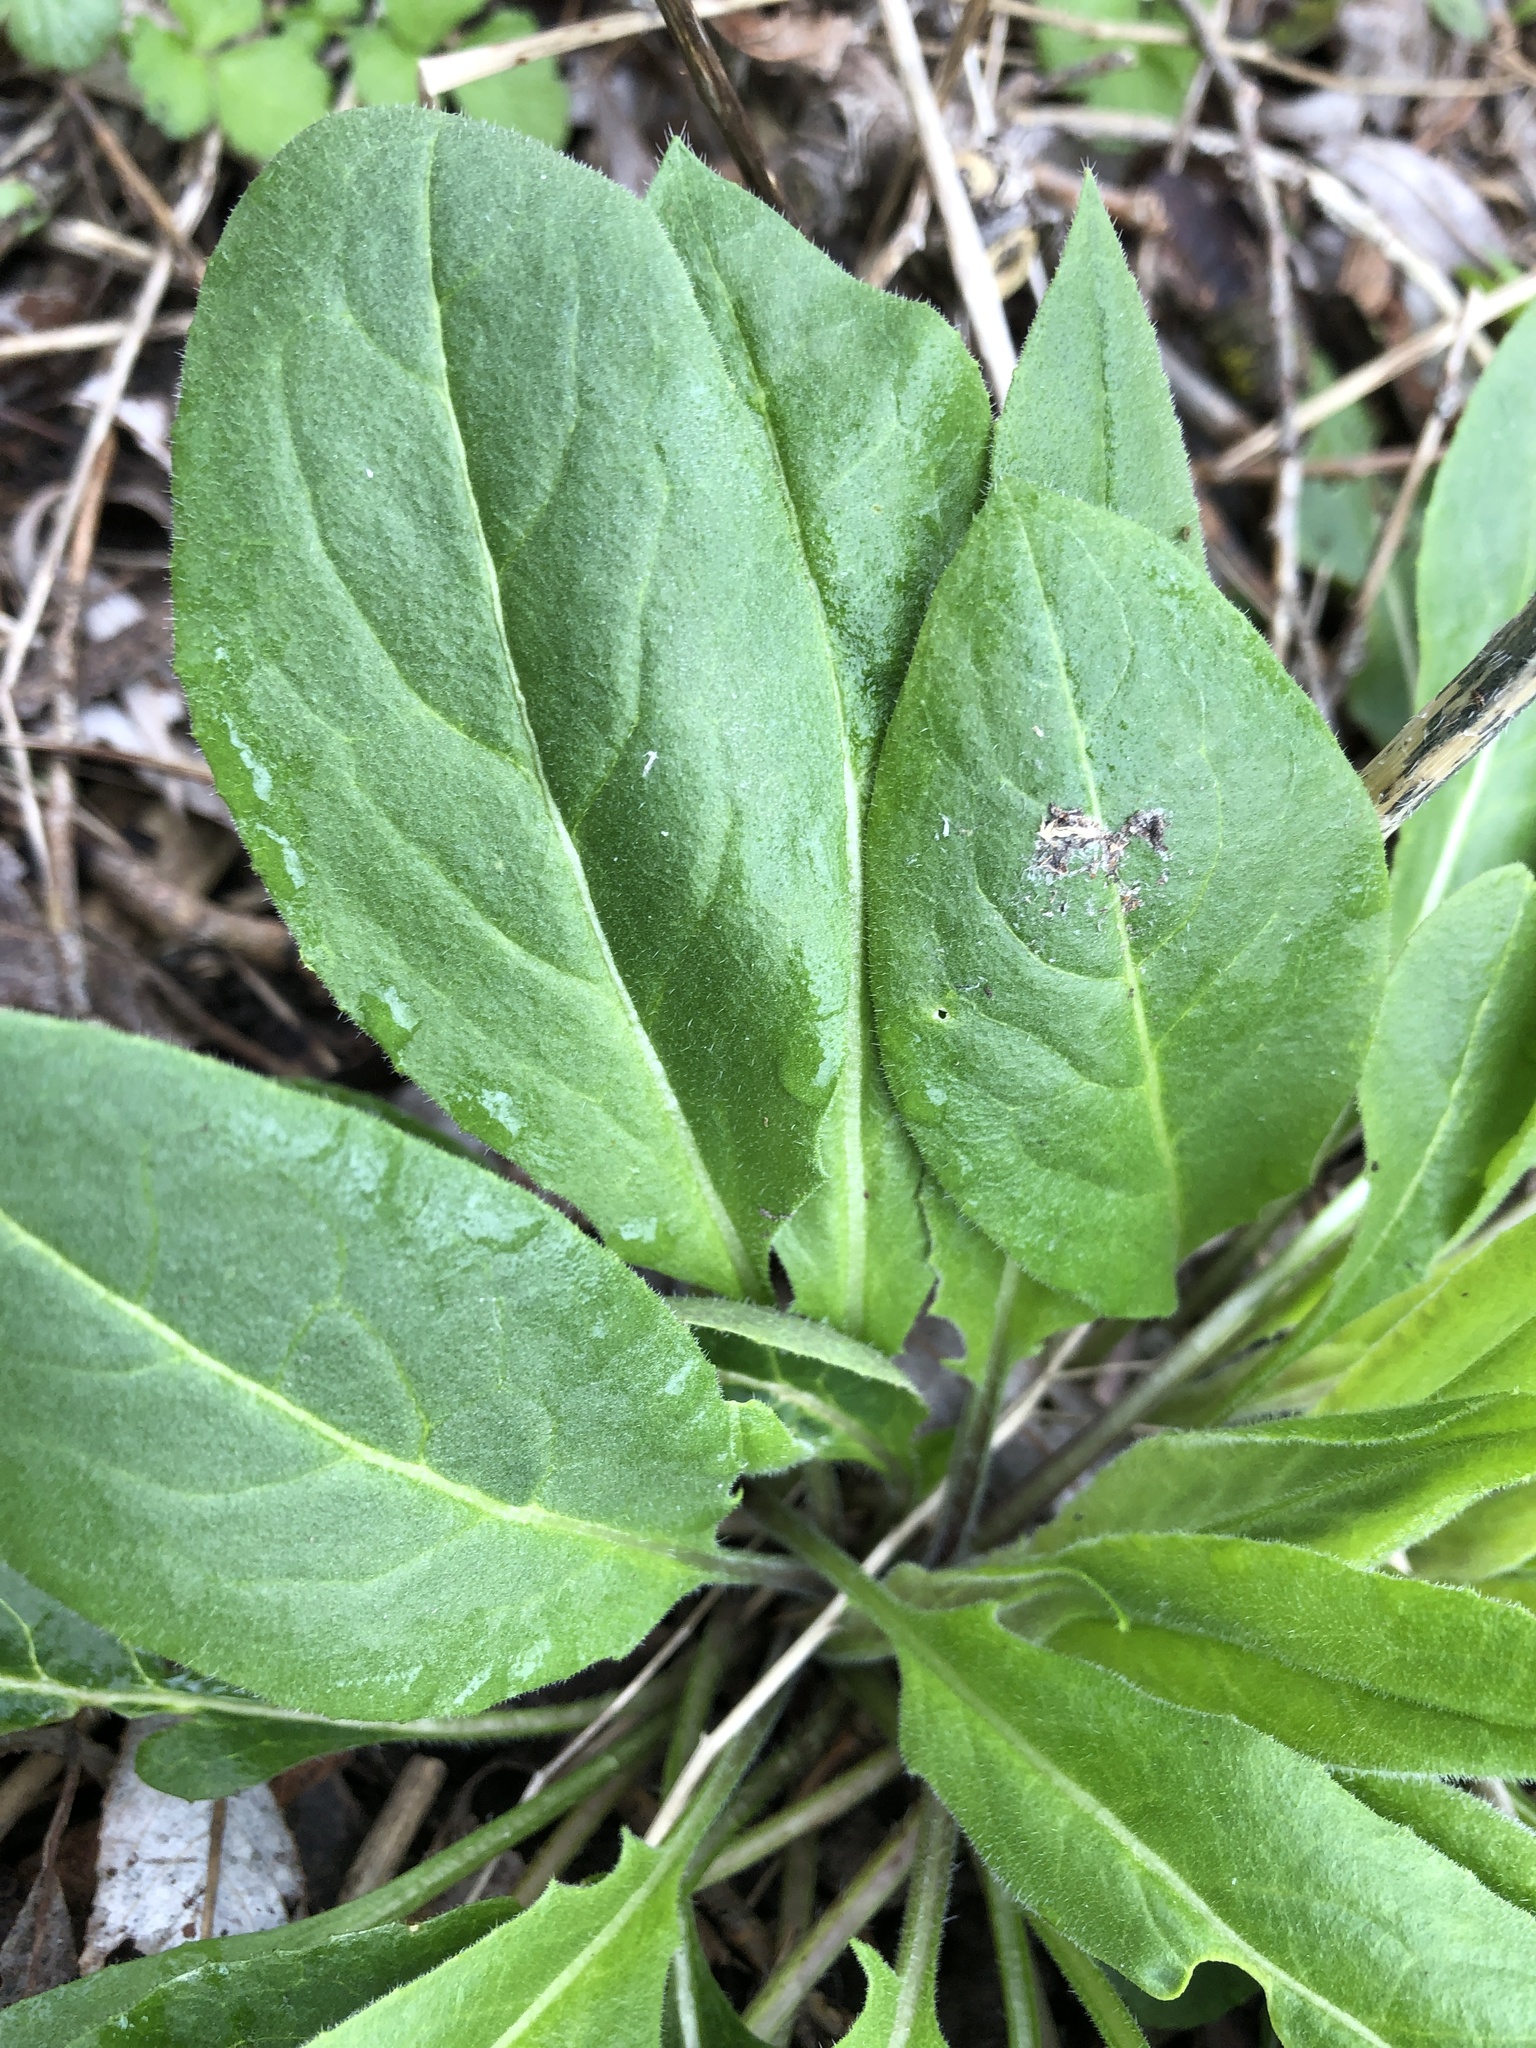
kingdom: Plantae
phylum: Tracheophyta
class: Magnoliopsida
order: Brassicales
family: Brassicaceae
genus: Hesperis
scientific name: Hesperis matronalis
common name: Dame's-violet
